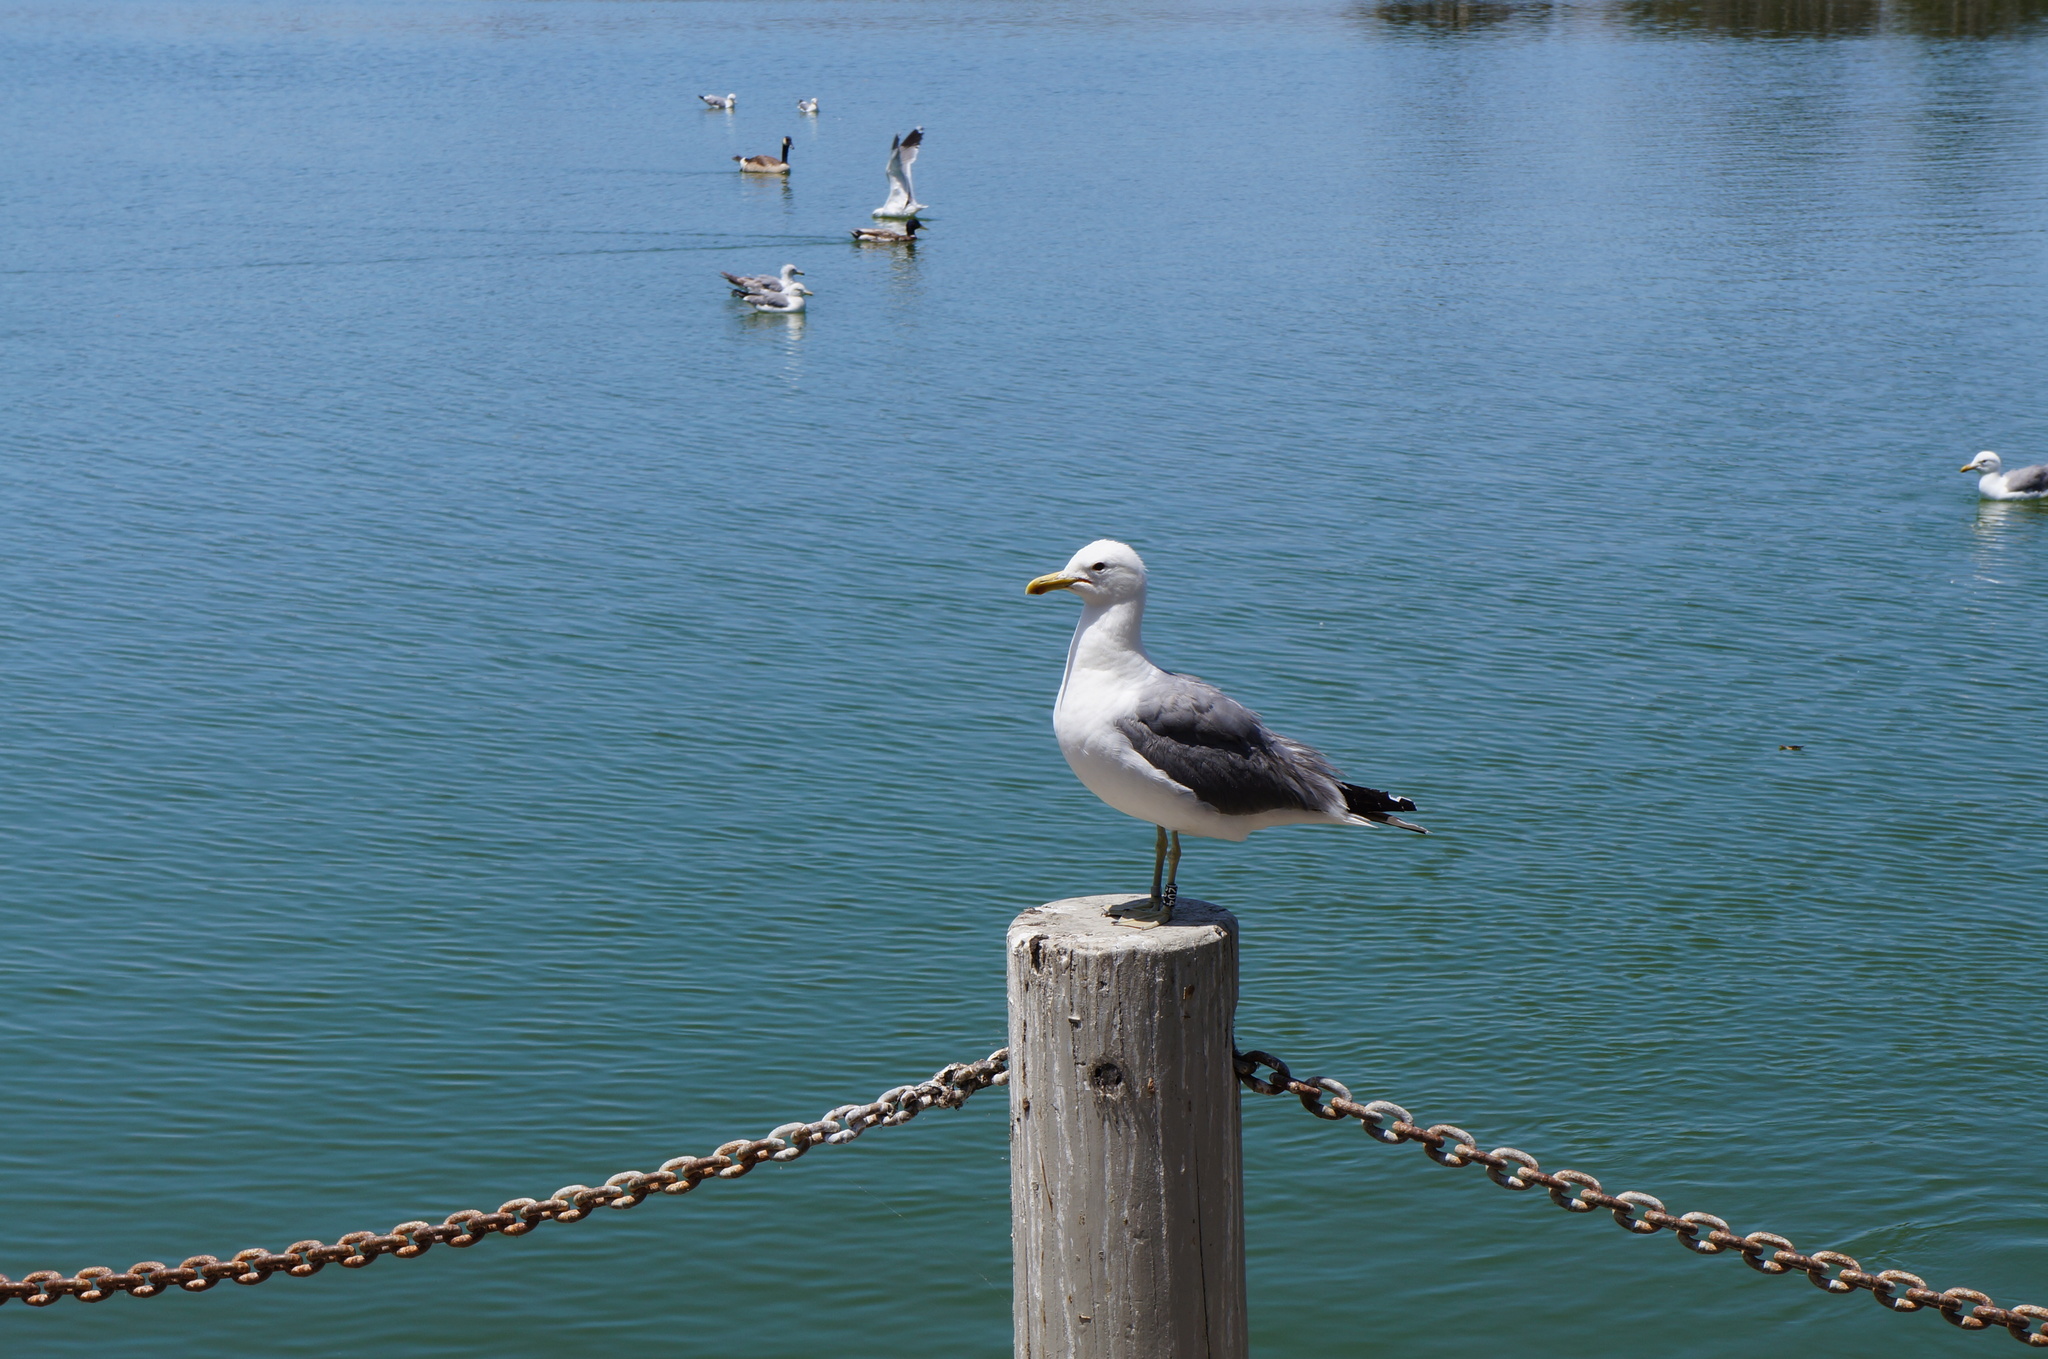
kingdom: Animalia
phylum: Chordata
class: Aves
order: Charadriiformes
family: Laridae
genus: Larus
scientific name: Larus californicus
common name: California gull
